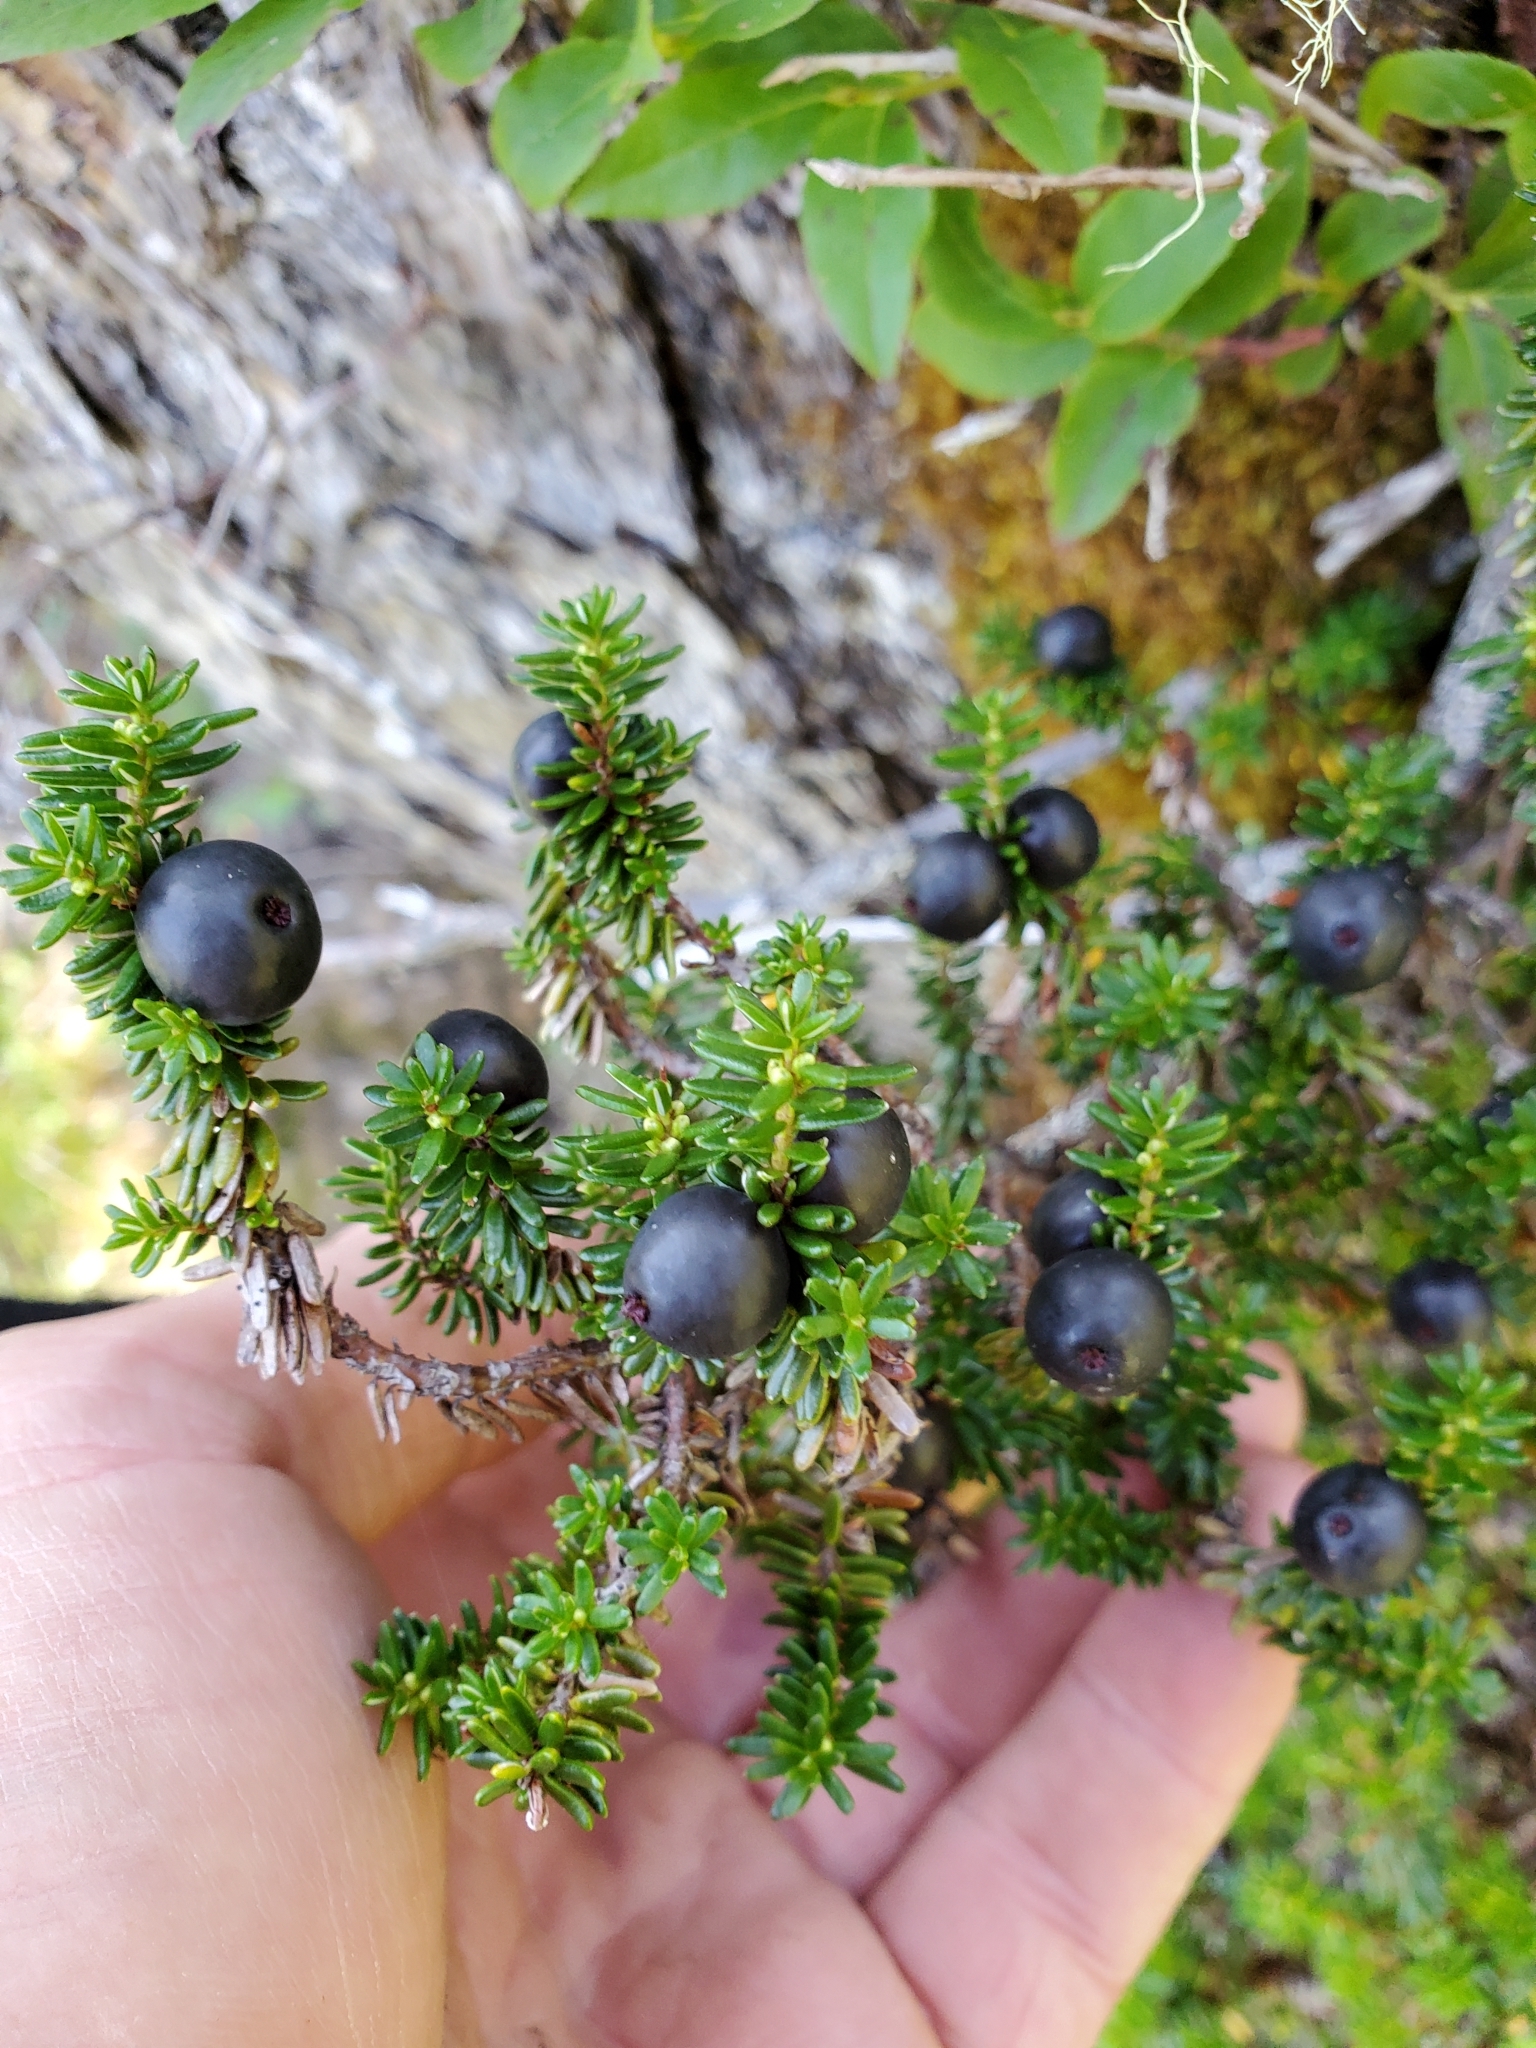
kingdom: Plantae
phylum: Tracheophyta
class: Magnoliopsida
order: Ericales
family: Ericaceae
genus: Empetrum
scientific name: Empetrum nigrum
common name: Black crowberry
